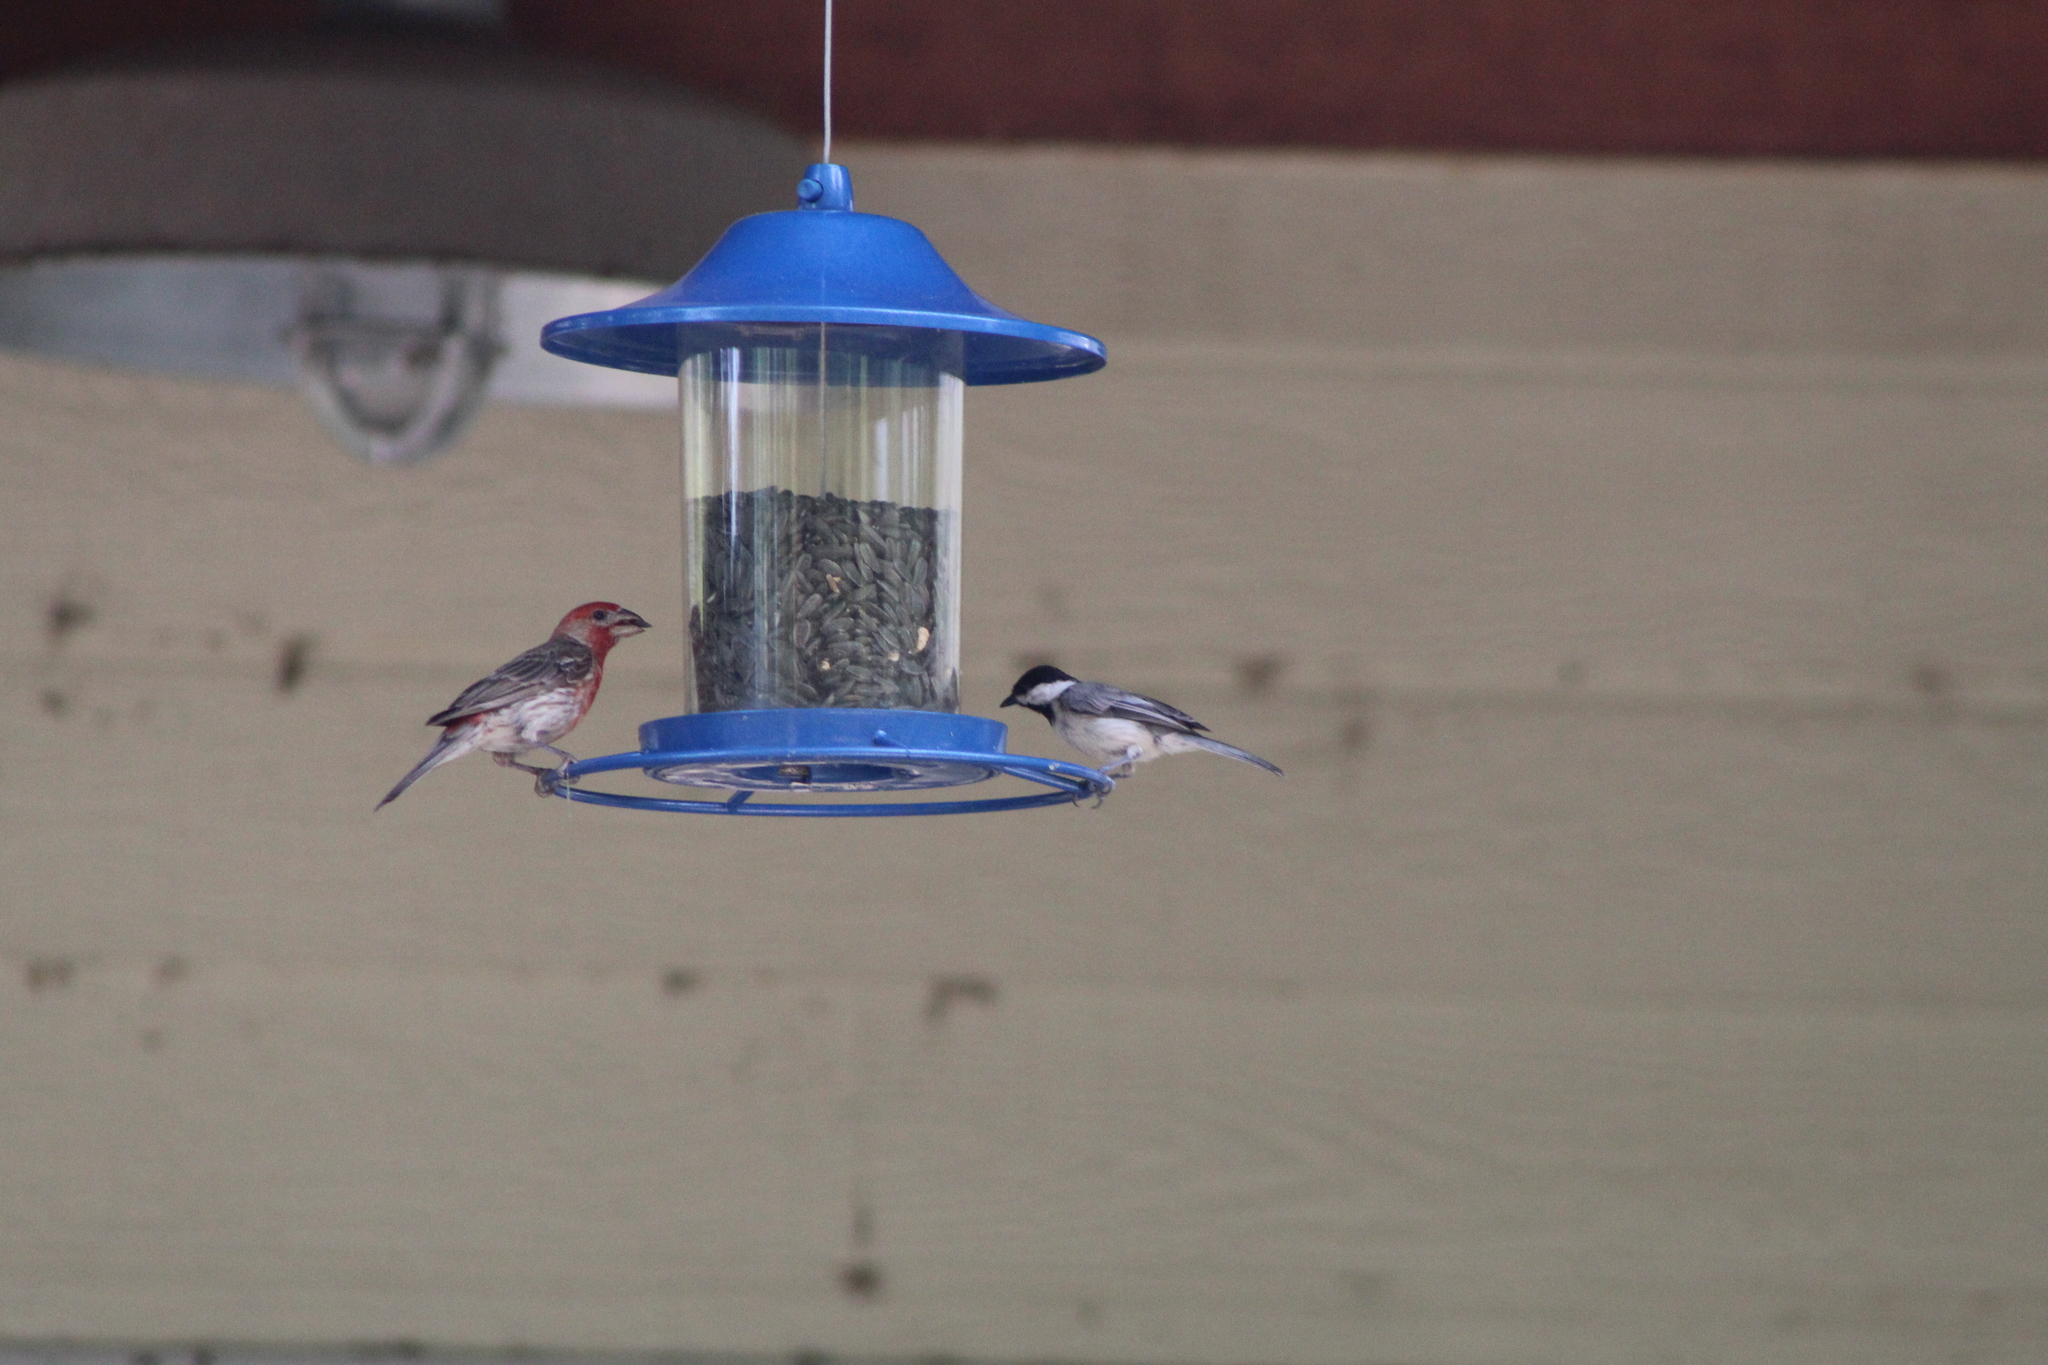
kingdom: Animalia
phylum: Chordata
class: Aves
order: Passeriformes
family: Paridae
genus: Poecile
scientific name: Poecile carolinensis
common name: Carolina chickadee
